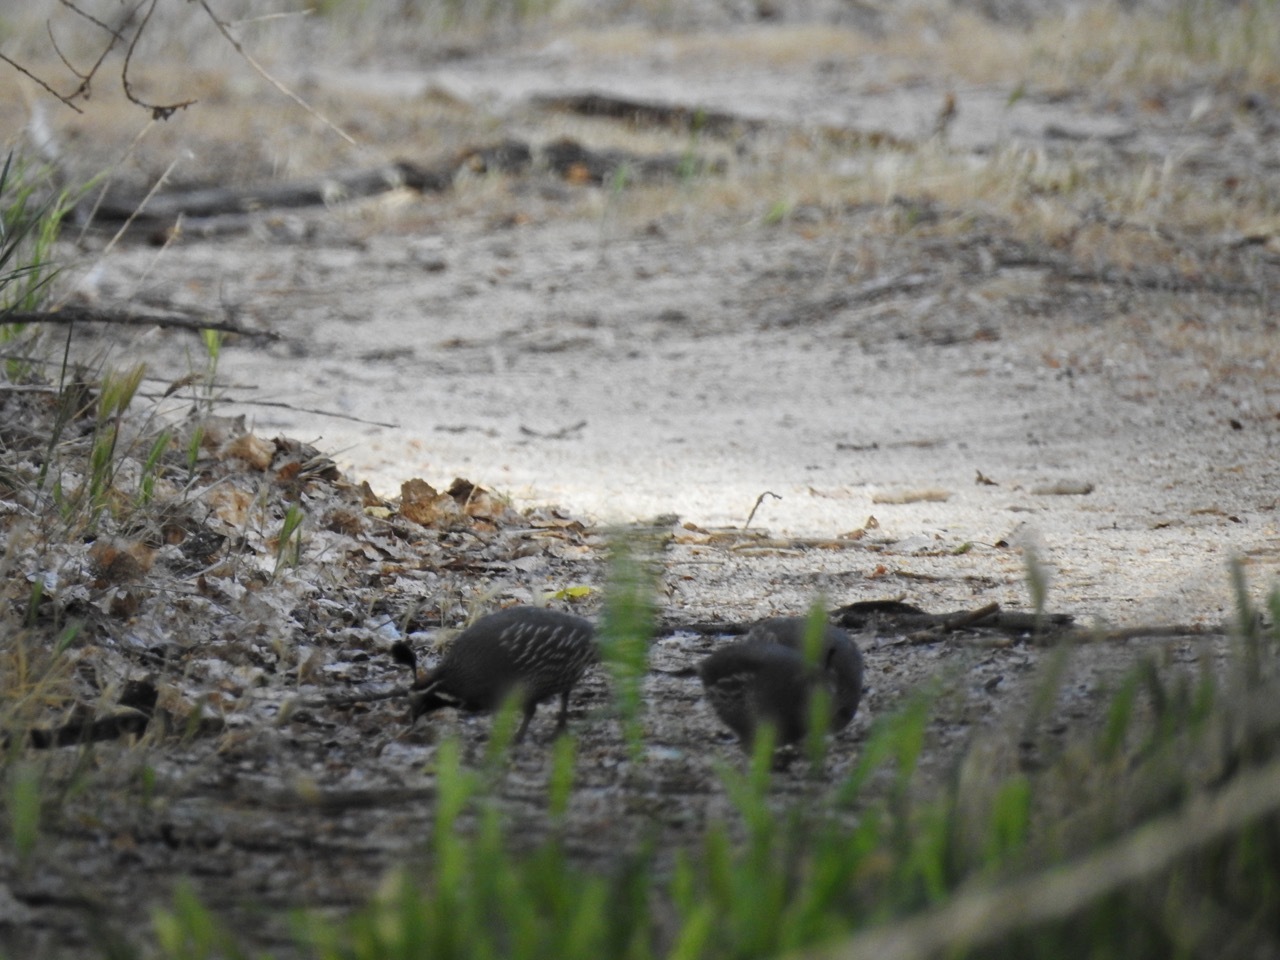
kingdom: Animalia
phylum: Chordata
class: Aves
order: Galliformes
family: Odontophoridae
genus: Callipepla
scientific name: Callipepla californica
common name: California quail
